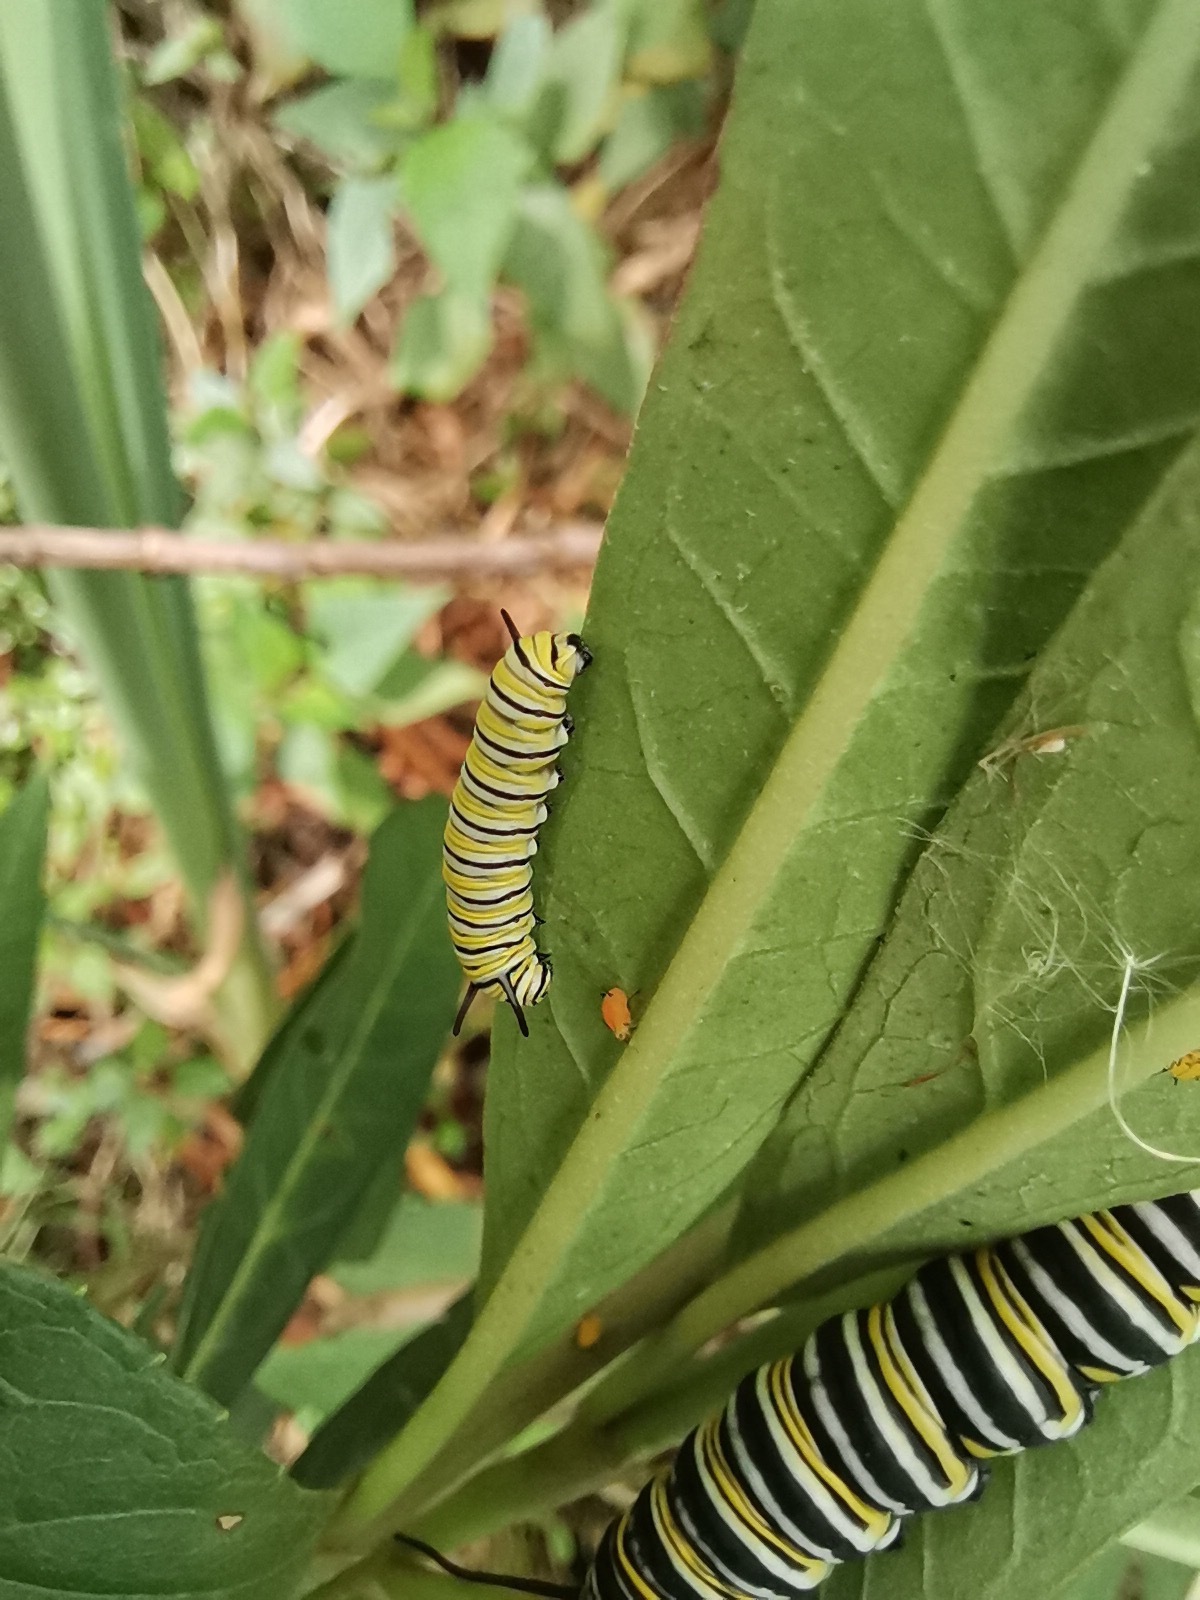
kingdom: Animalia
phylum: Arthropoda
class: Insecta
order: Lepidoptera
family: Nymphalidae
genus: Danaus
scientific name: Danaus plexippus
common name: Monarch
